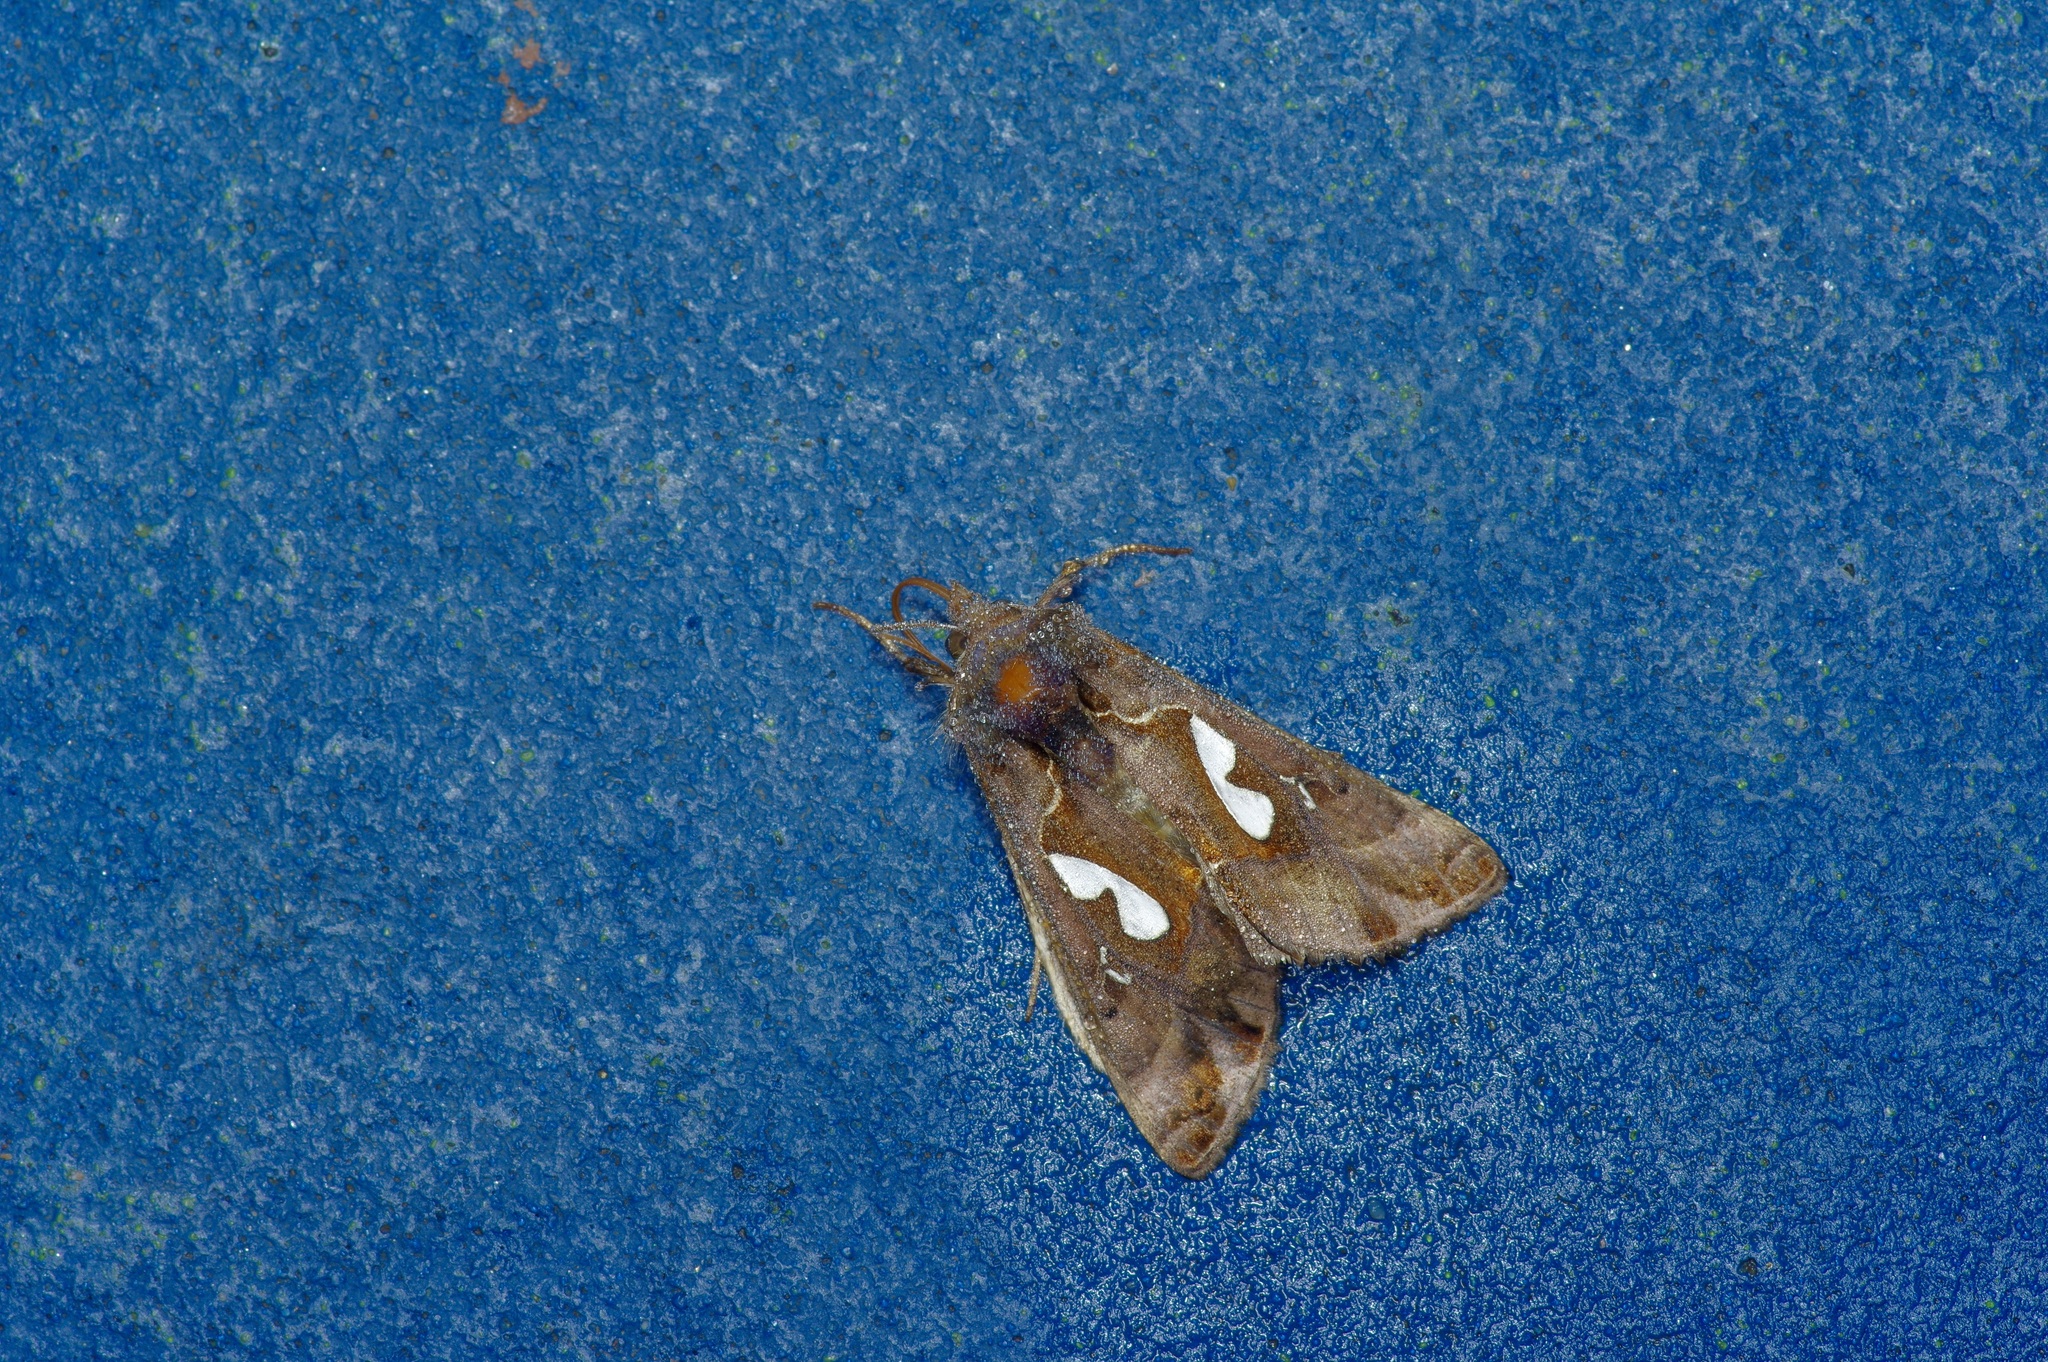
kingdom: Animalia
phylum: Arthropoda
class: Insecta
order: Lepidoptera
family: Noctuidae
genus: Megalographa
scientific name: Megalographa biloba
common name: Cutworm
